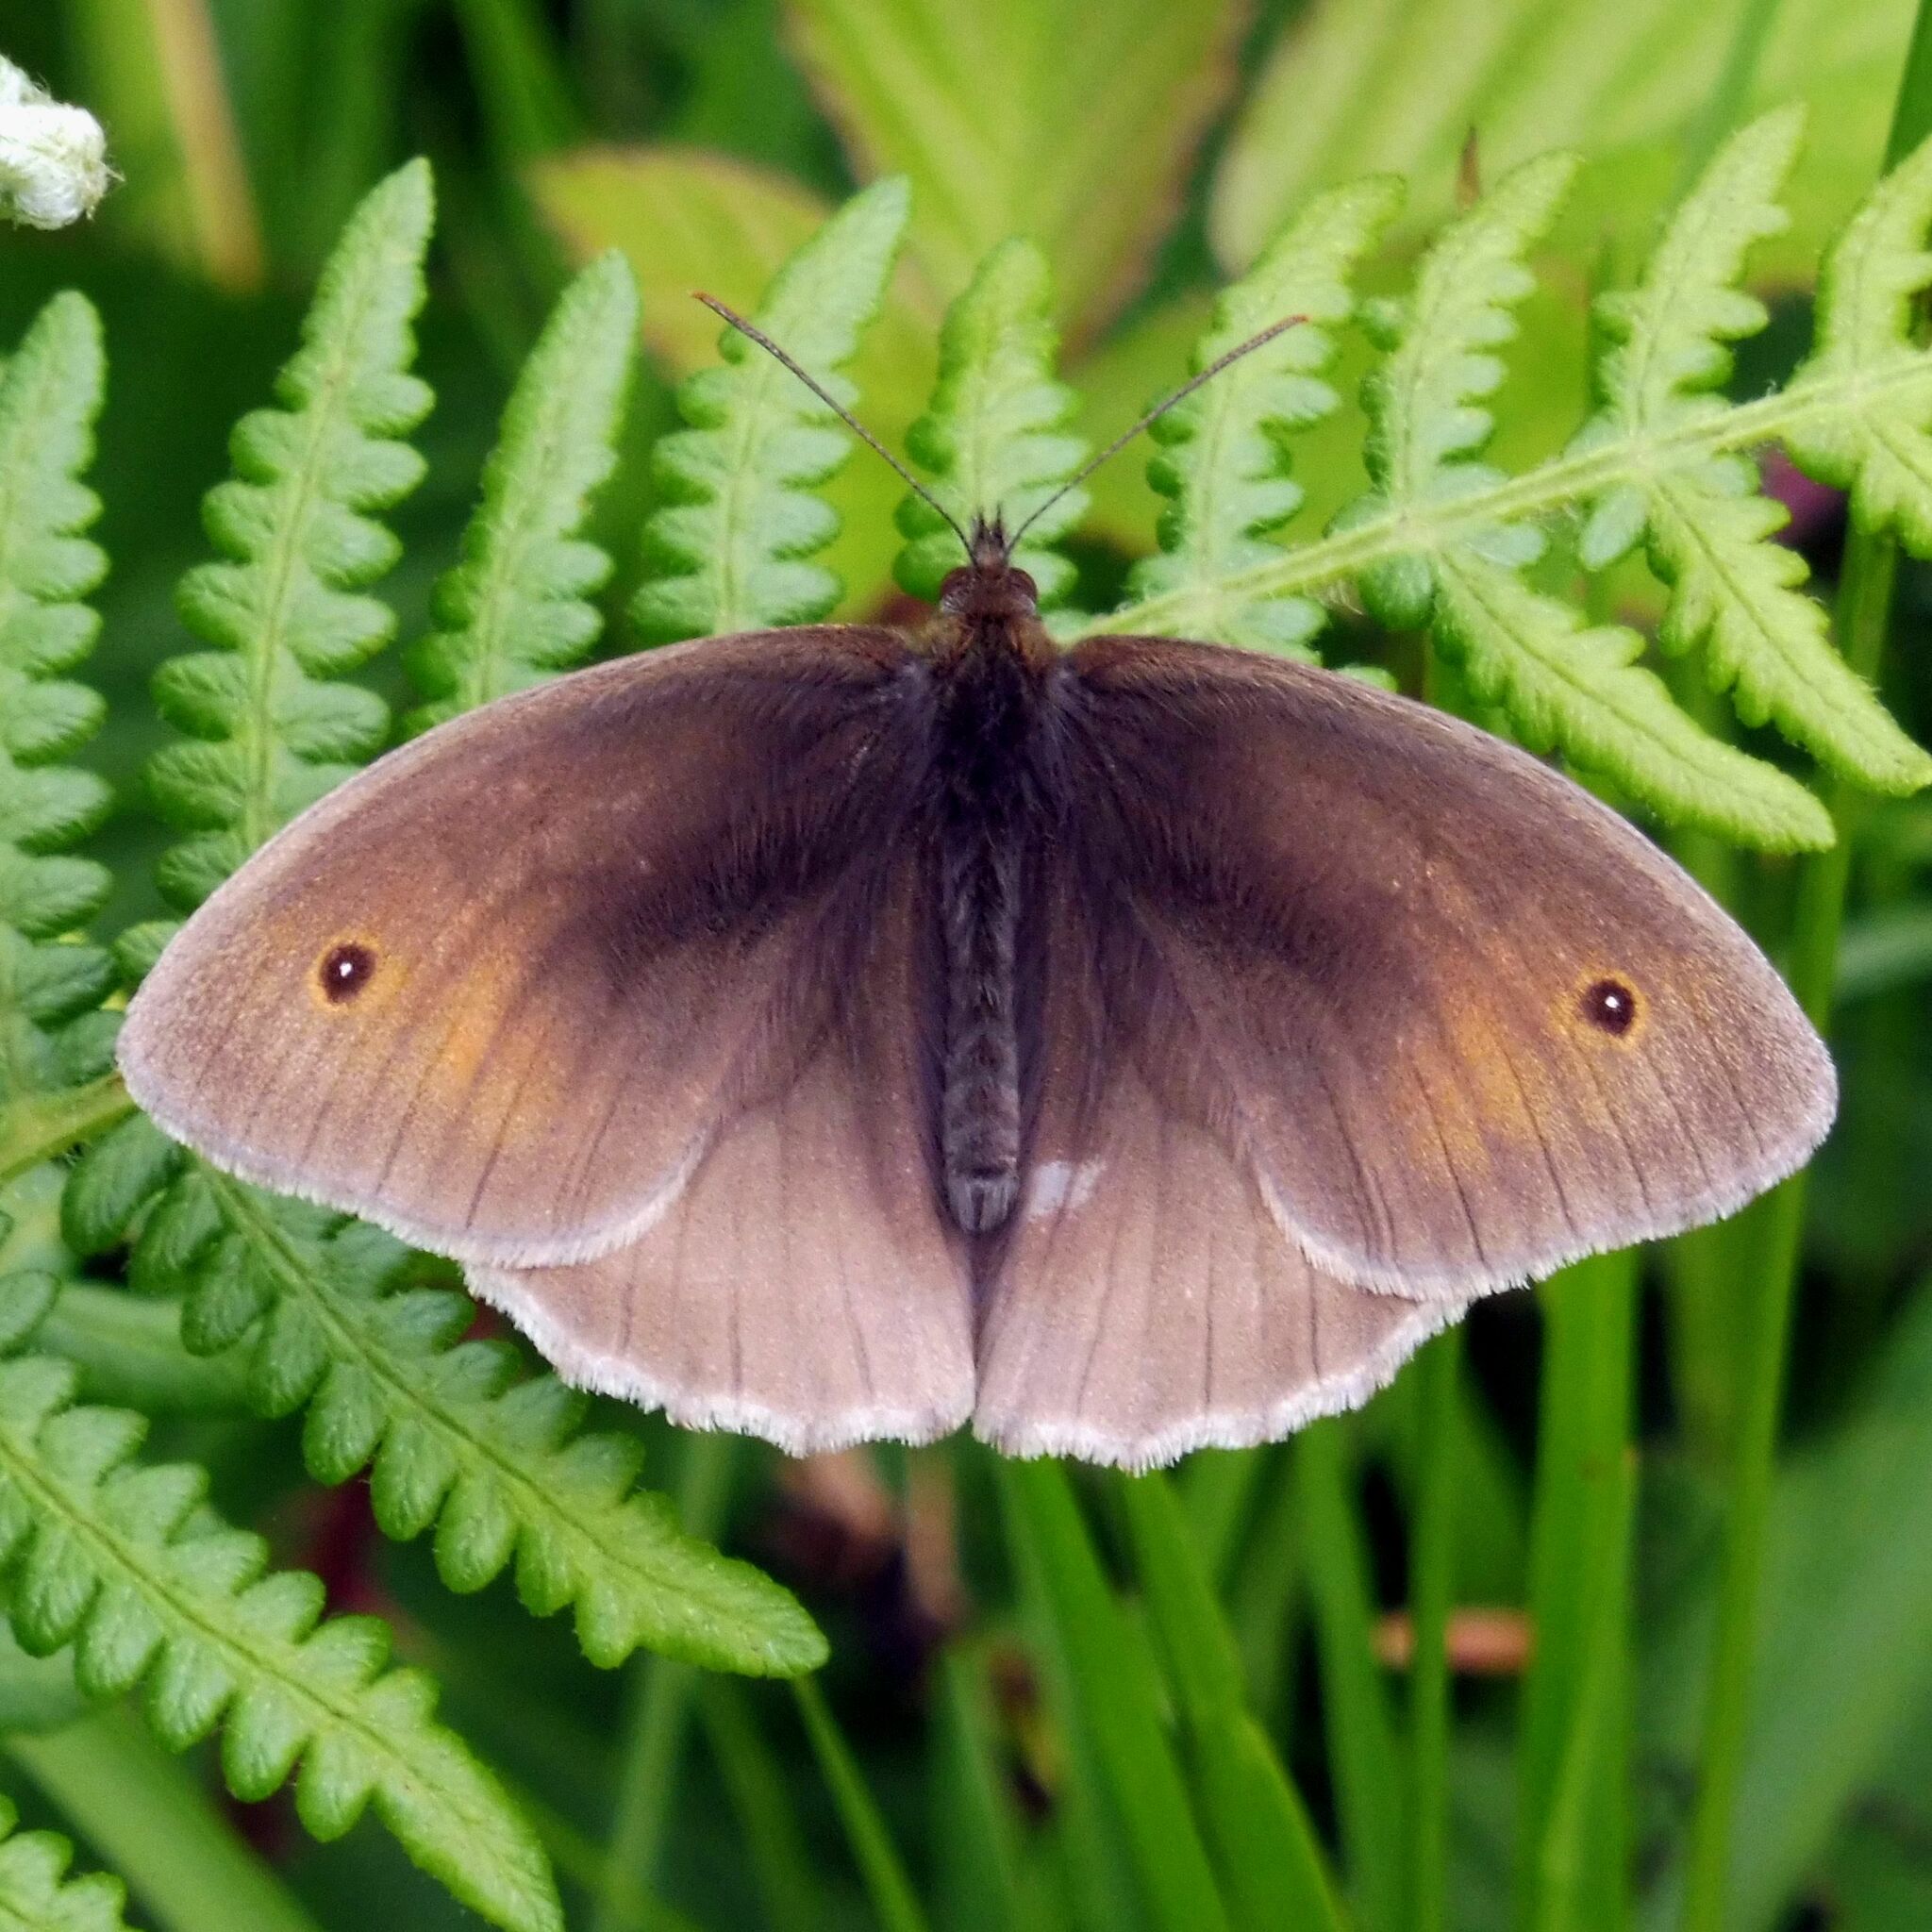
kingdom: Animalia
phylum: Arthropoda
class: Insecta
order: Lepidoptera
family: Nymphalidae
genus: Maniola
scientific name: Maniola jurtina
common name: Meadow brown
